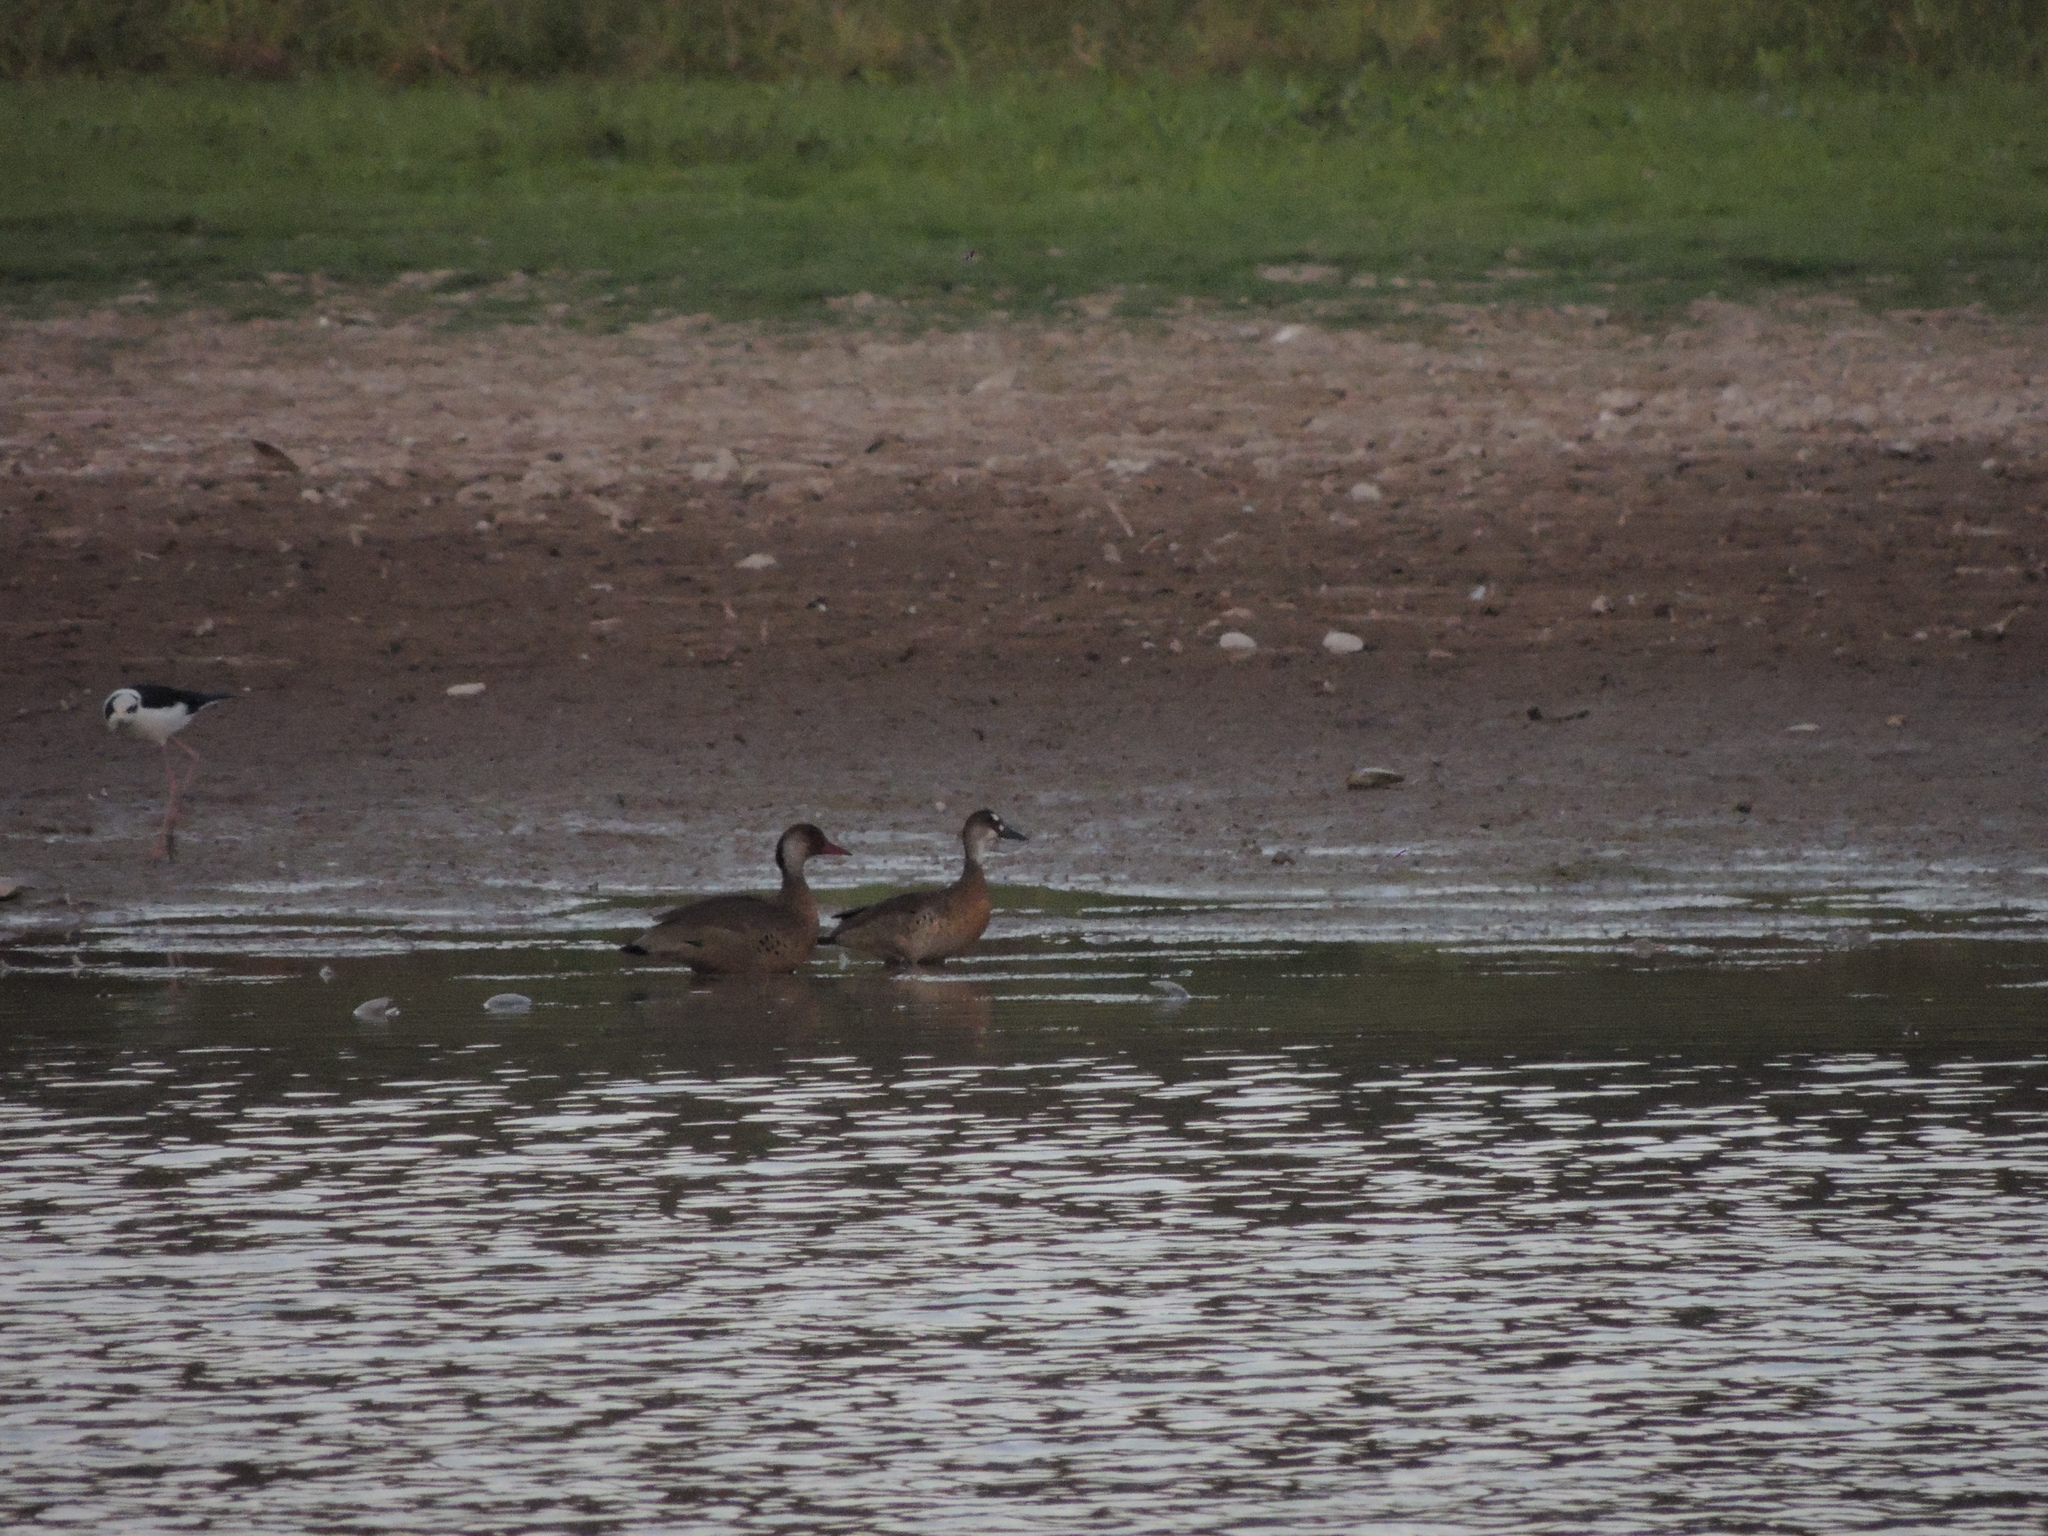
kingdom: Animalia
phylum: Chordata
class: Aves
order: Anseriformes
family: Anatidae
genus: Amazonetta
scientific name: Amazonetta brasiliensis
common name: Brazilian teal
